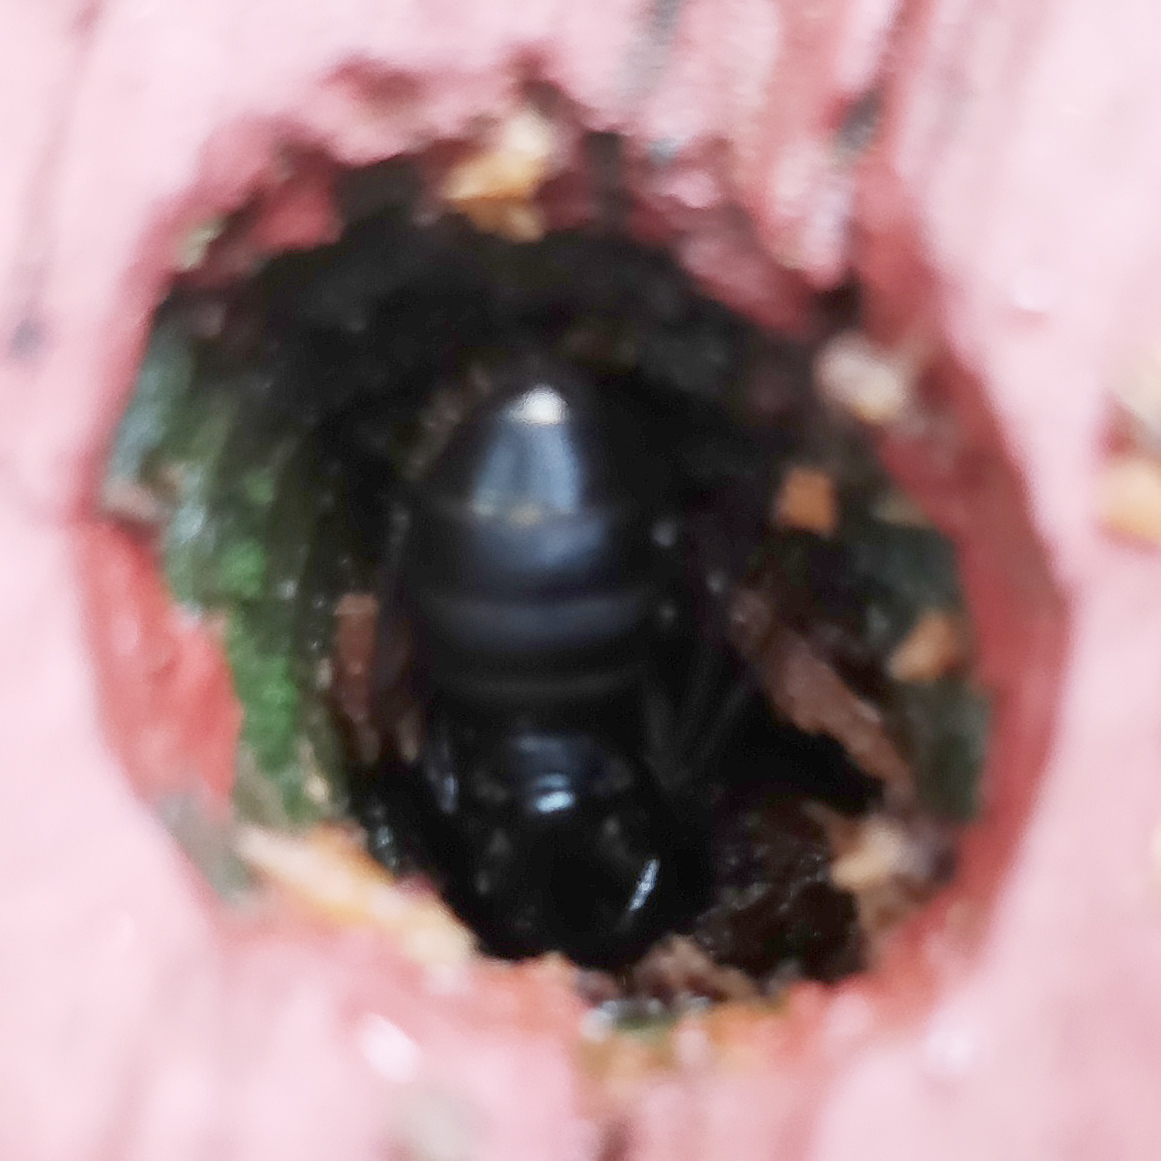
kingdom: Animalia
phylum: Arthropoda
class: Insecta
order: Hymenoptera
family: Formicidae
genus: Camponotus
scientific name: Camponotus pennsylvanicus
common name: Black carpenter ant
